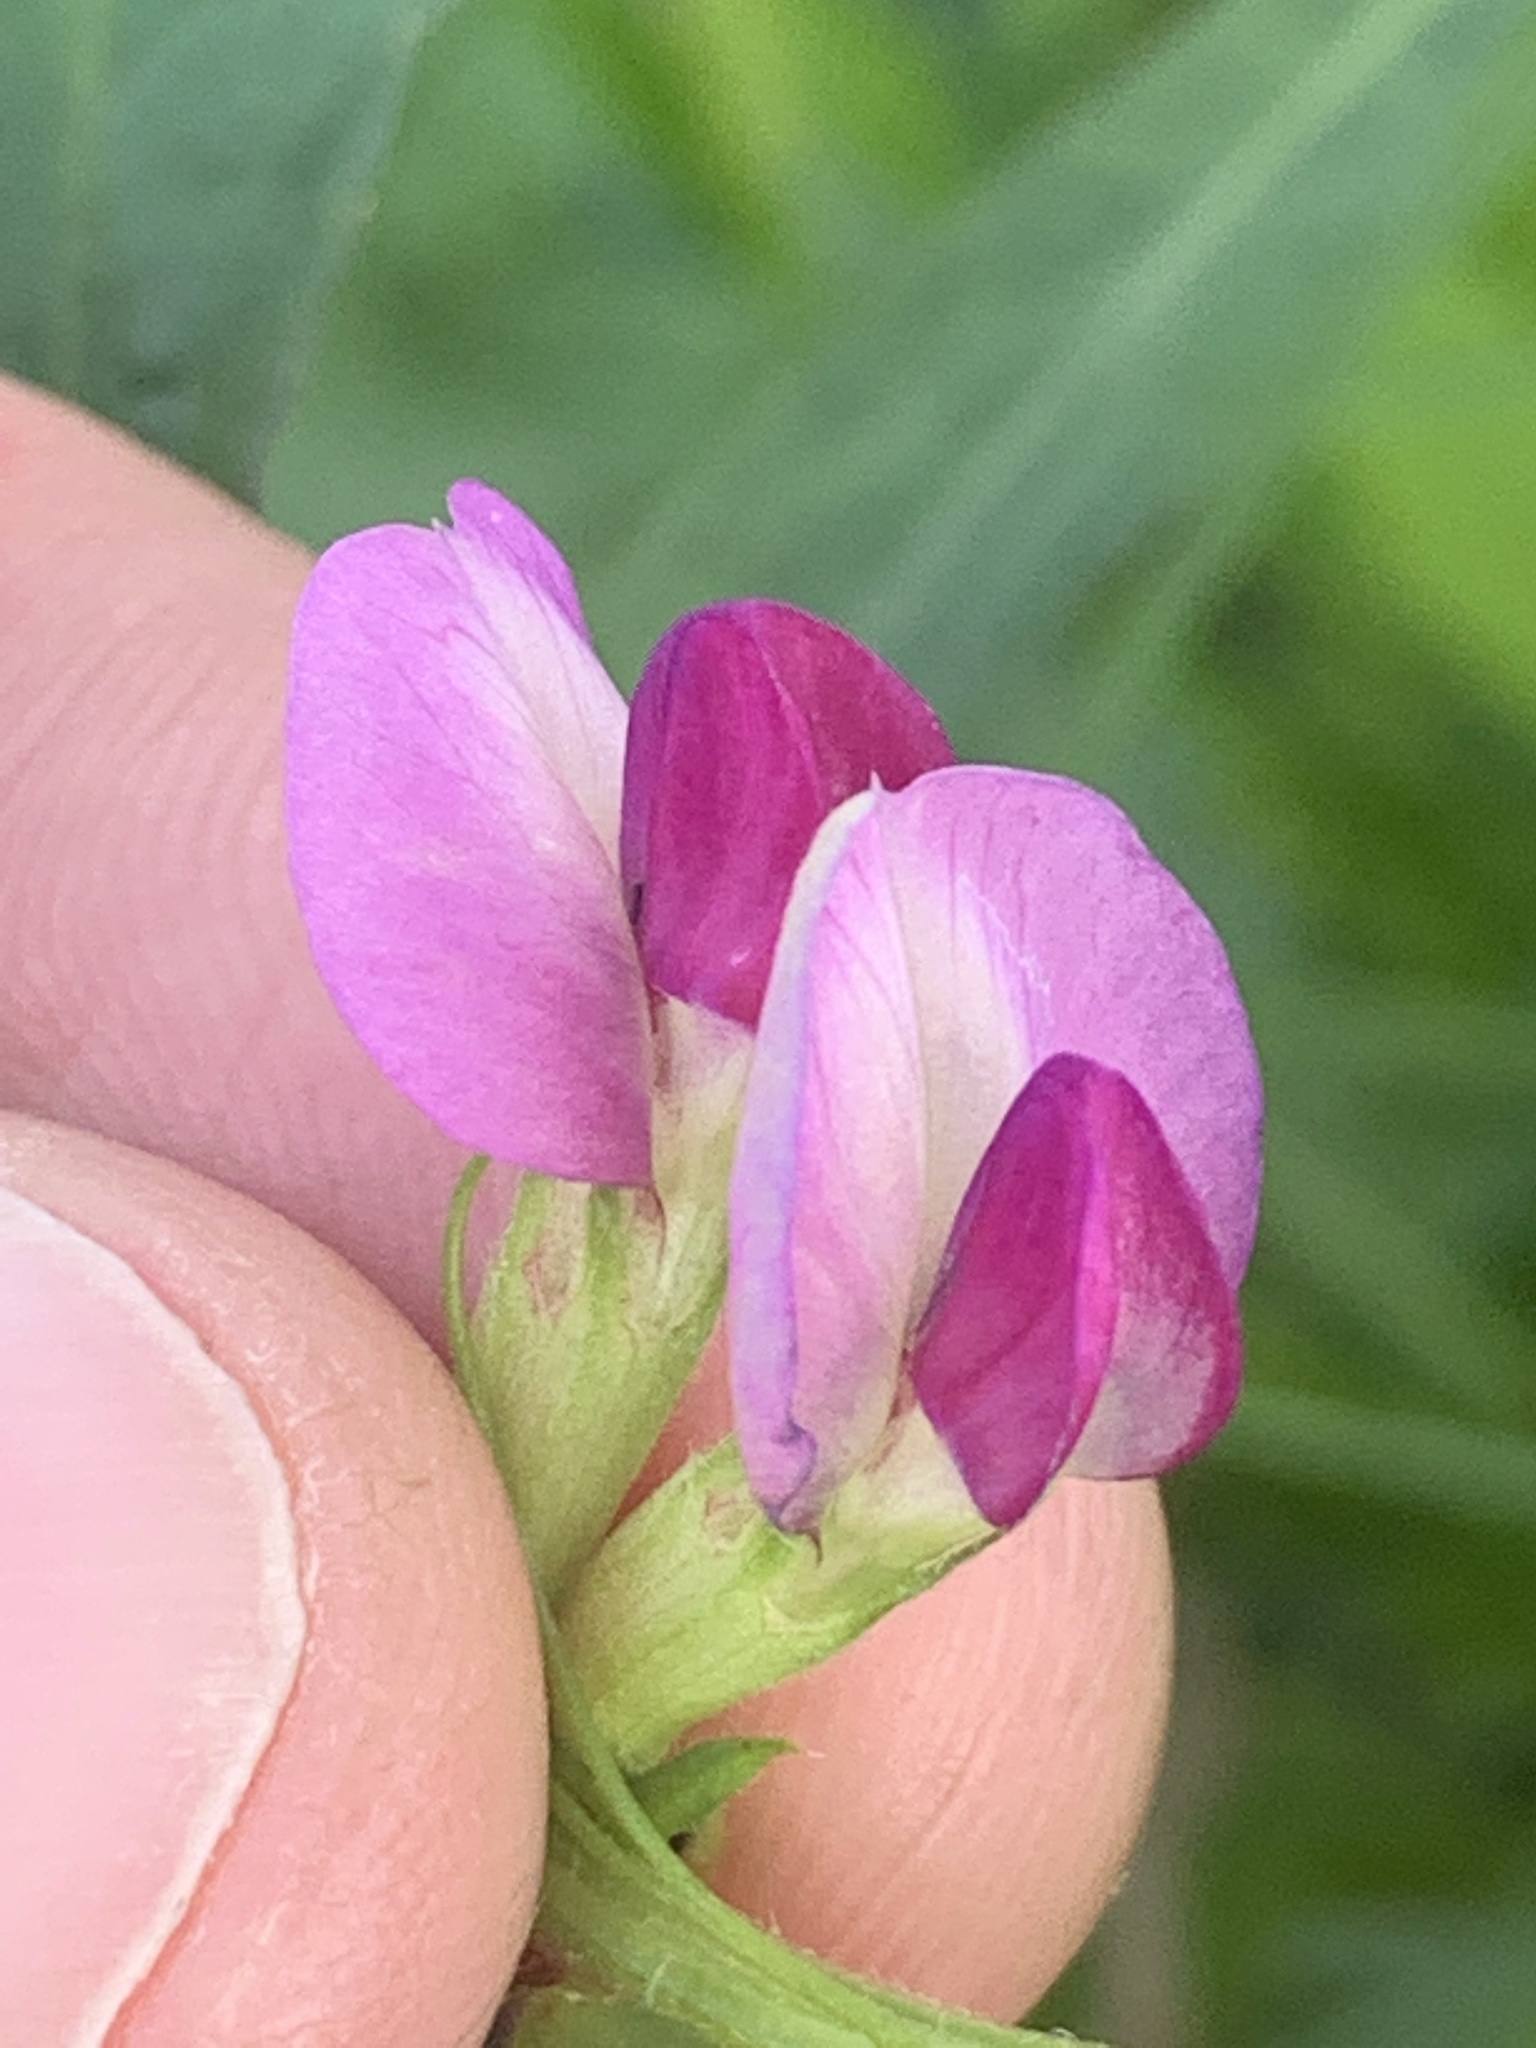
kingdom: Plantae
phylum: Tracheophyta
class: Magnoliopsida
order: Fabales
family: Fabaceae
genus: Vicia
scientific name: Vicia sativa
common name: Garden vetch
